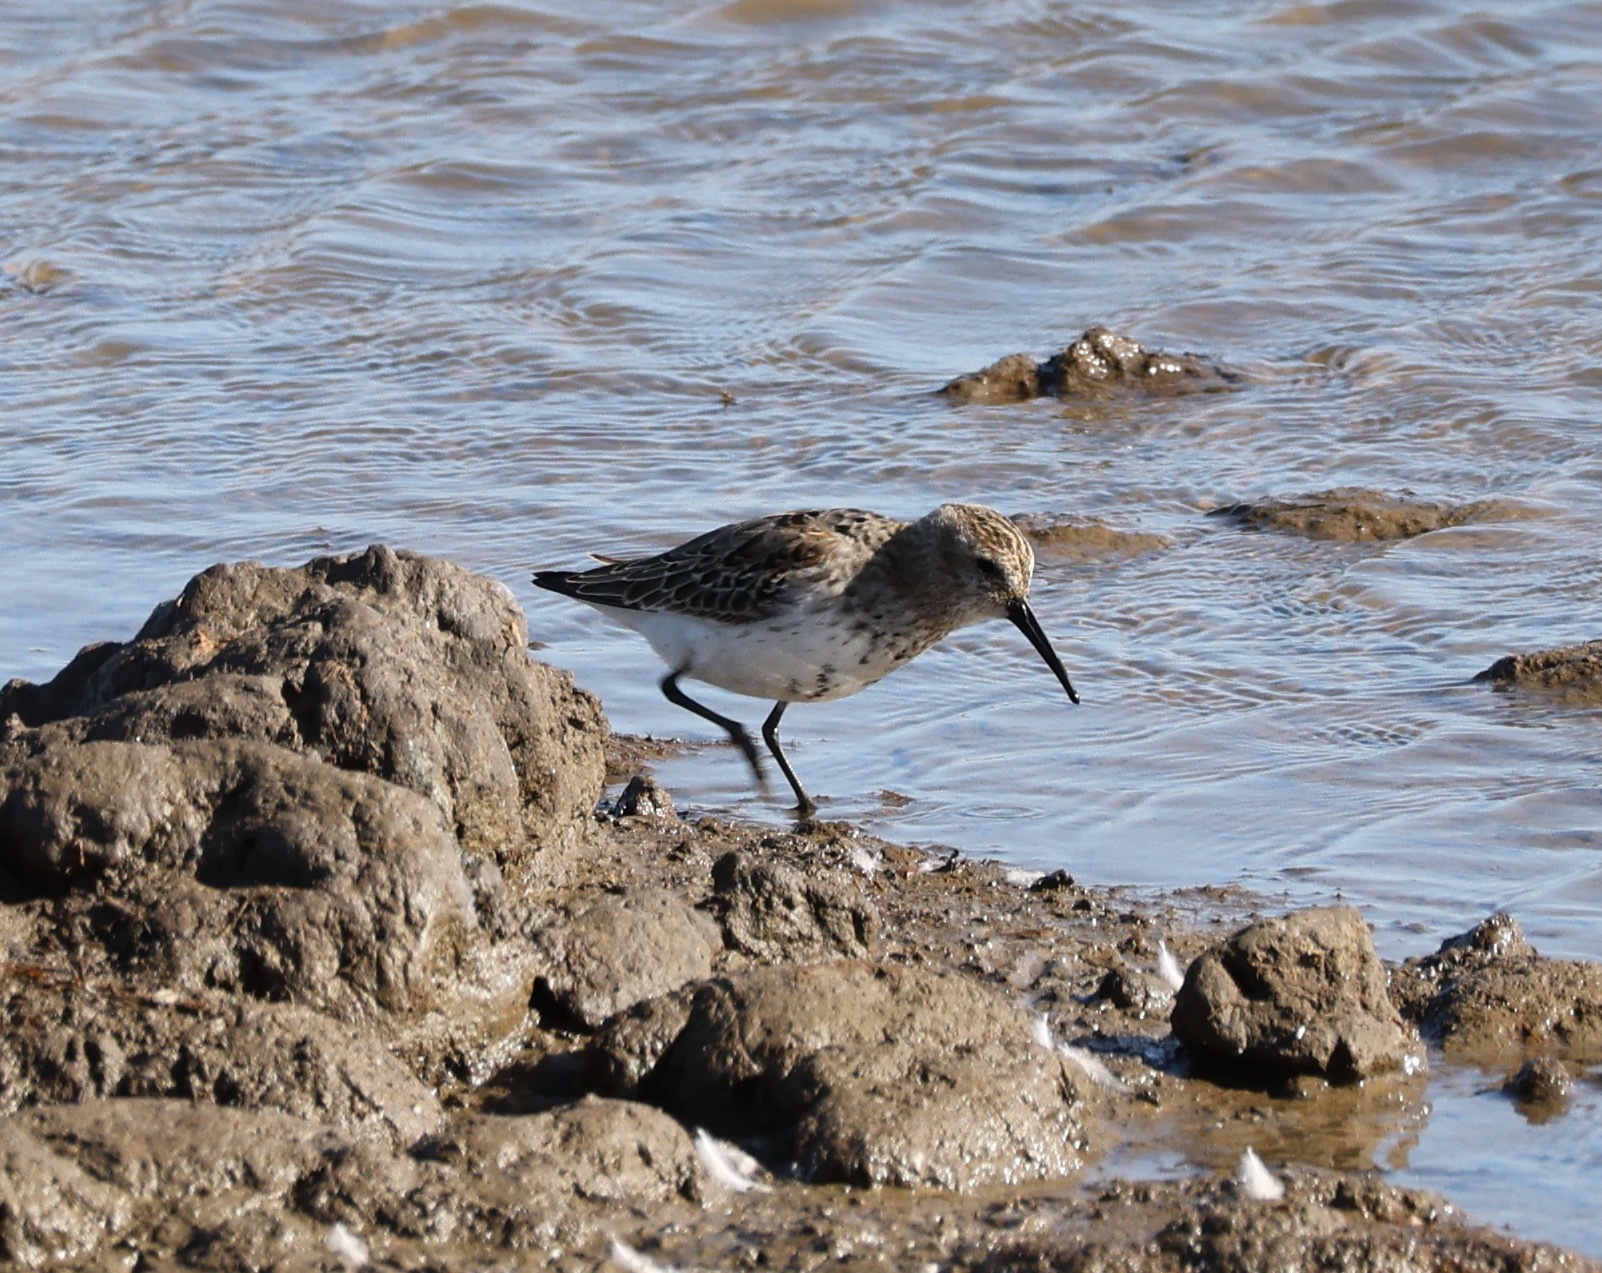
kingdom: Animalia
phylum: Chordata
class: Aves
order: Charadriiformes
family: Scolopacidae
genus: Calidris
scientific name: Calidris alpina
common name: Dunlin
